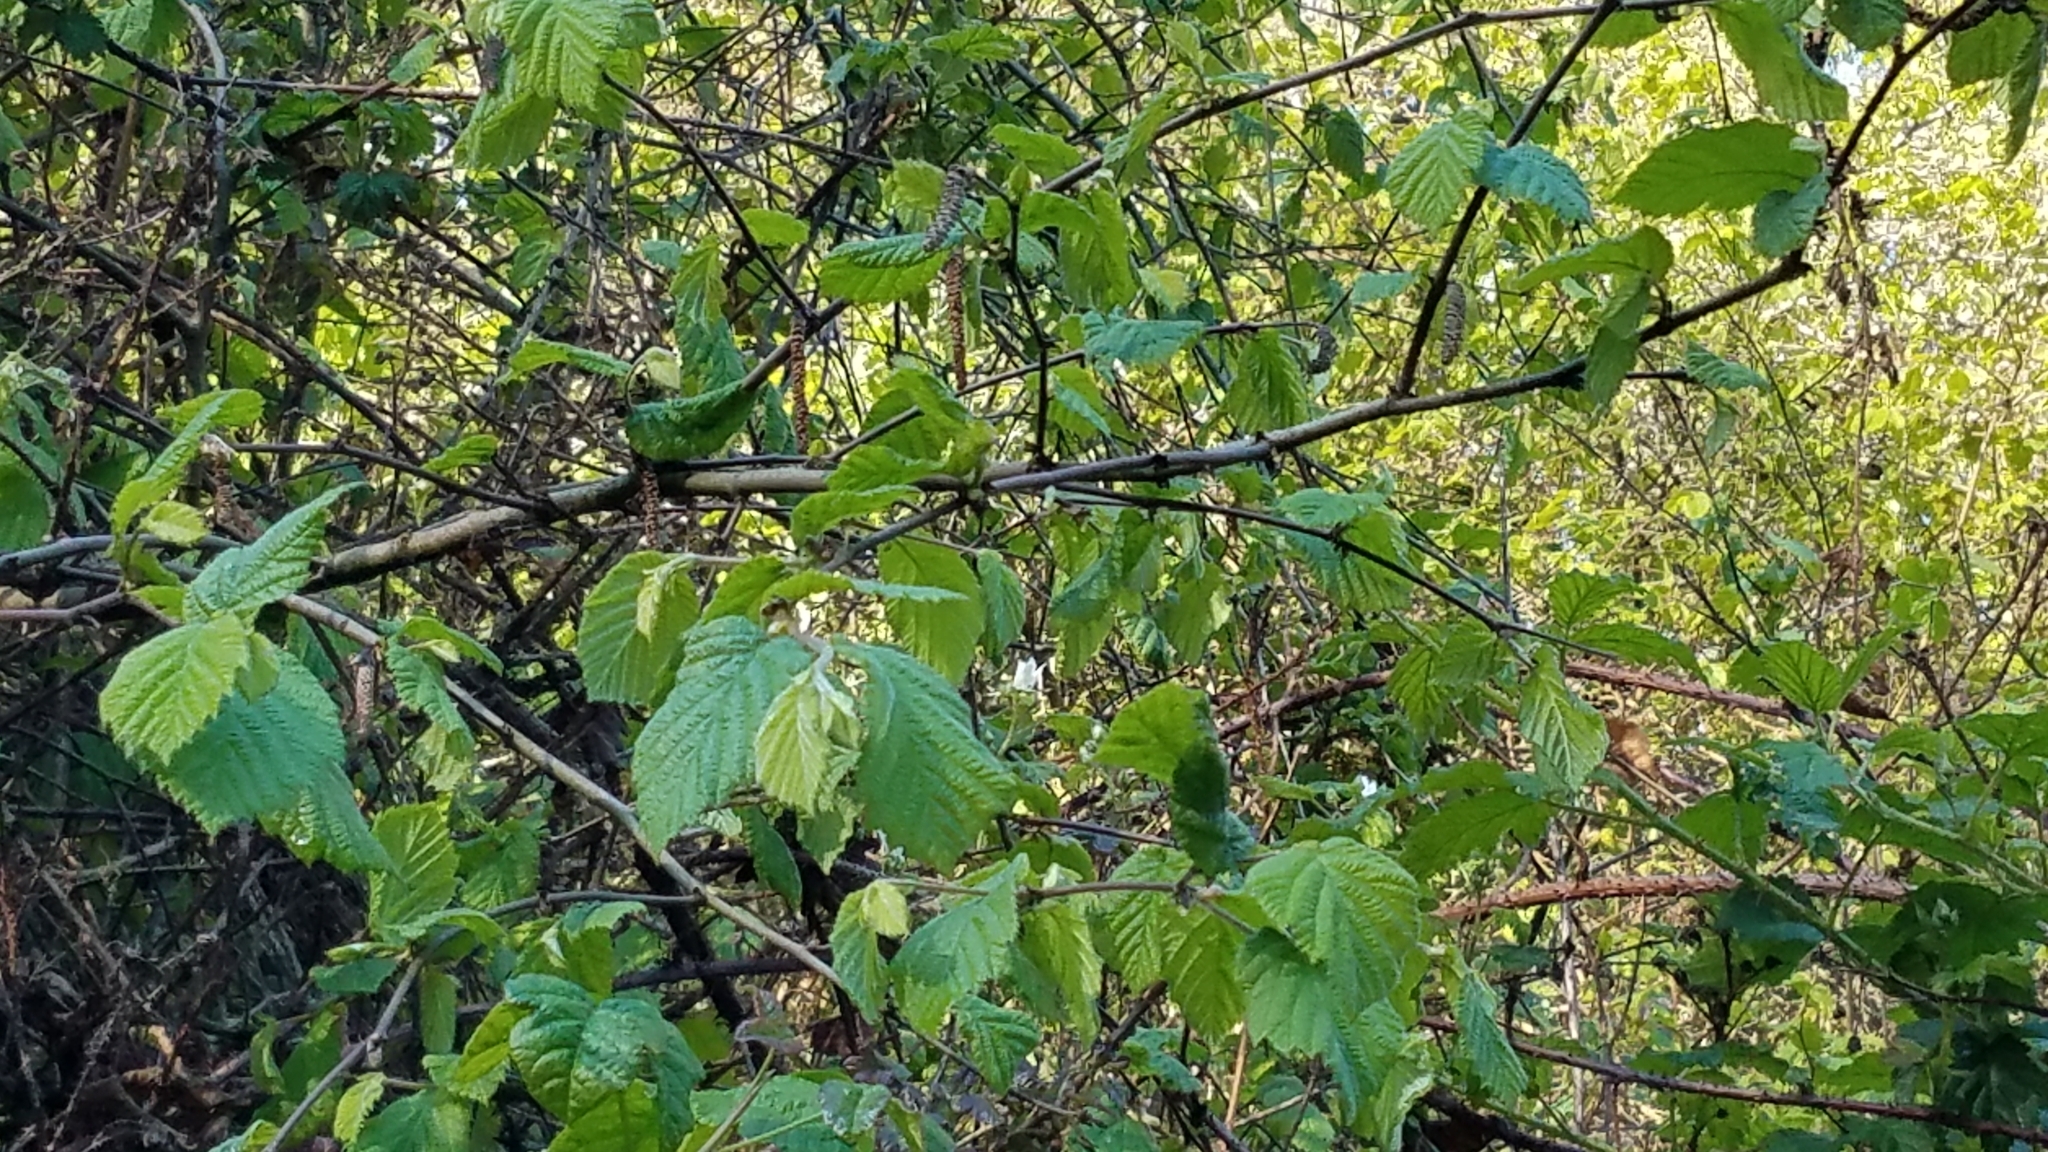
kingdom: Plantae
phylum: Tracheophyta
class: Magnoliopsida
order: Fagales
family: Betulaceae
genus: Corylus
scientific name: Corylus cornuta
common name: Beaked hazel
